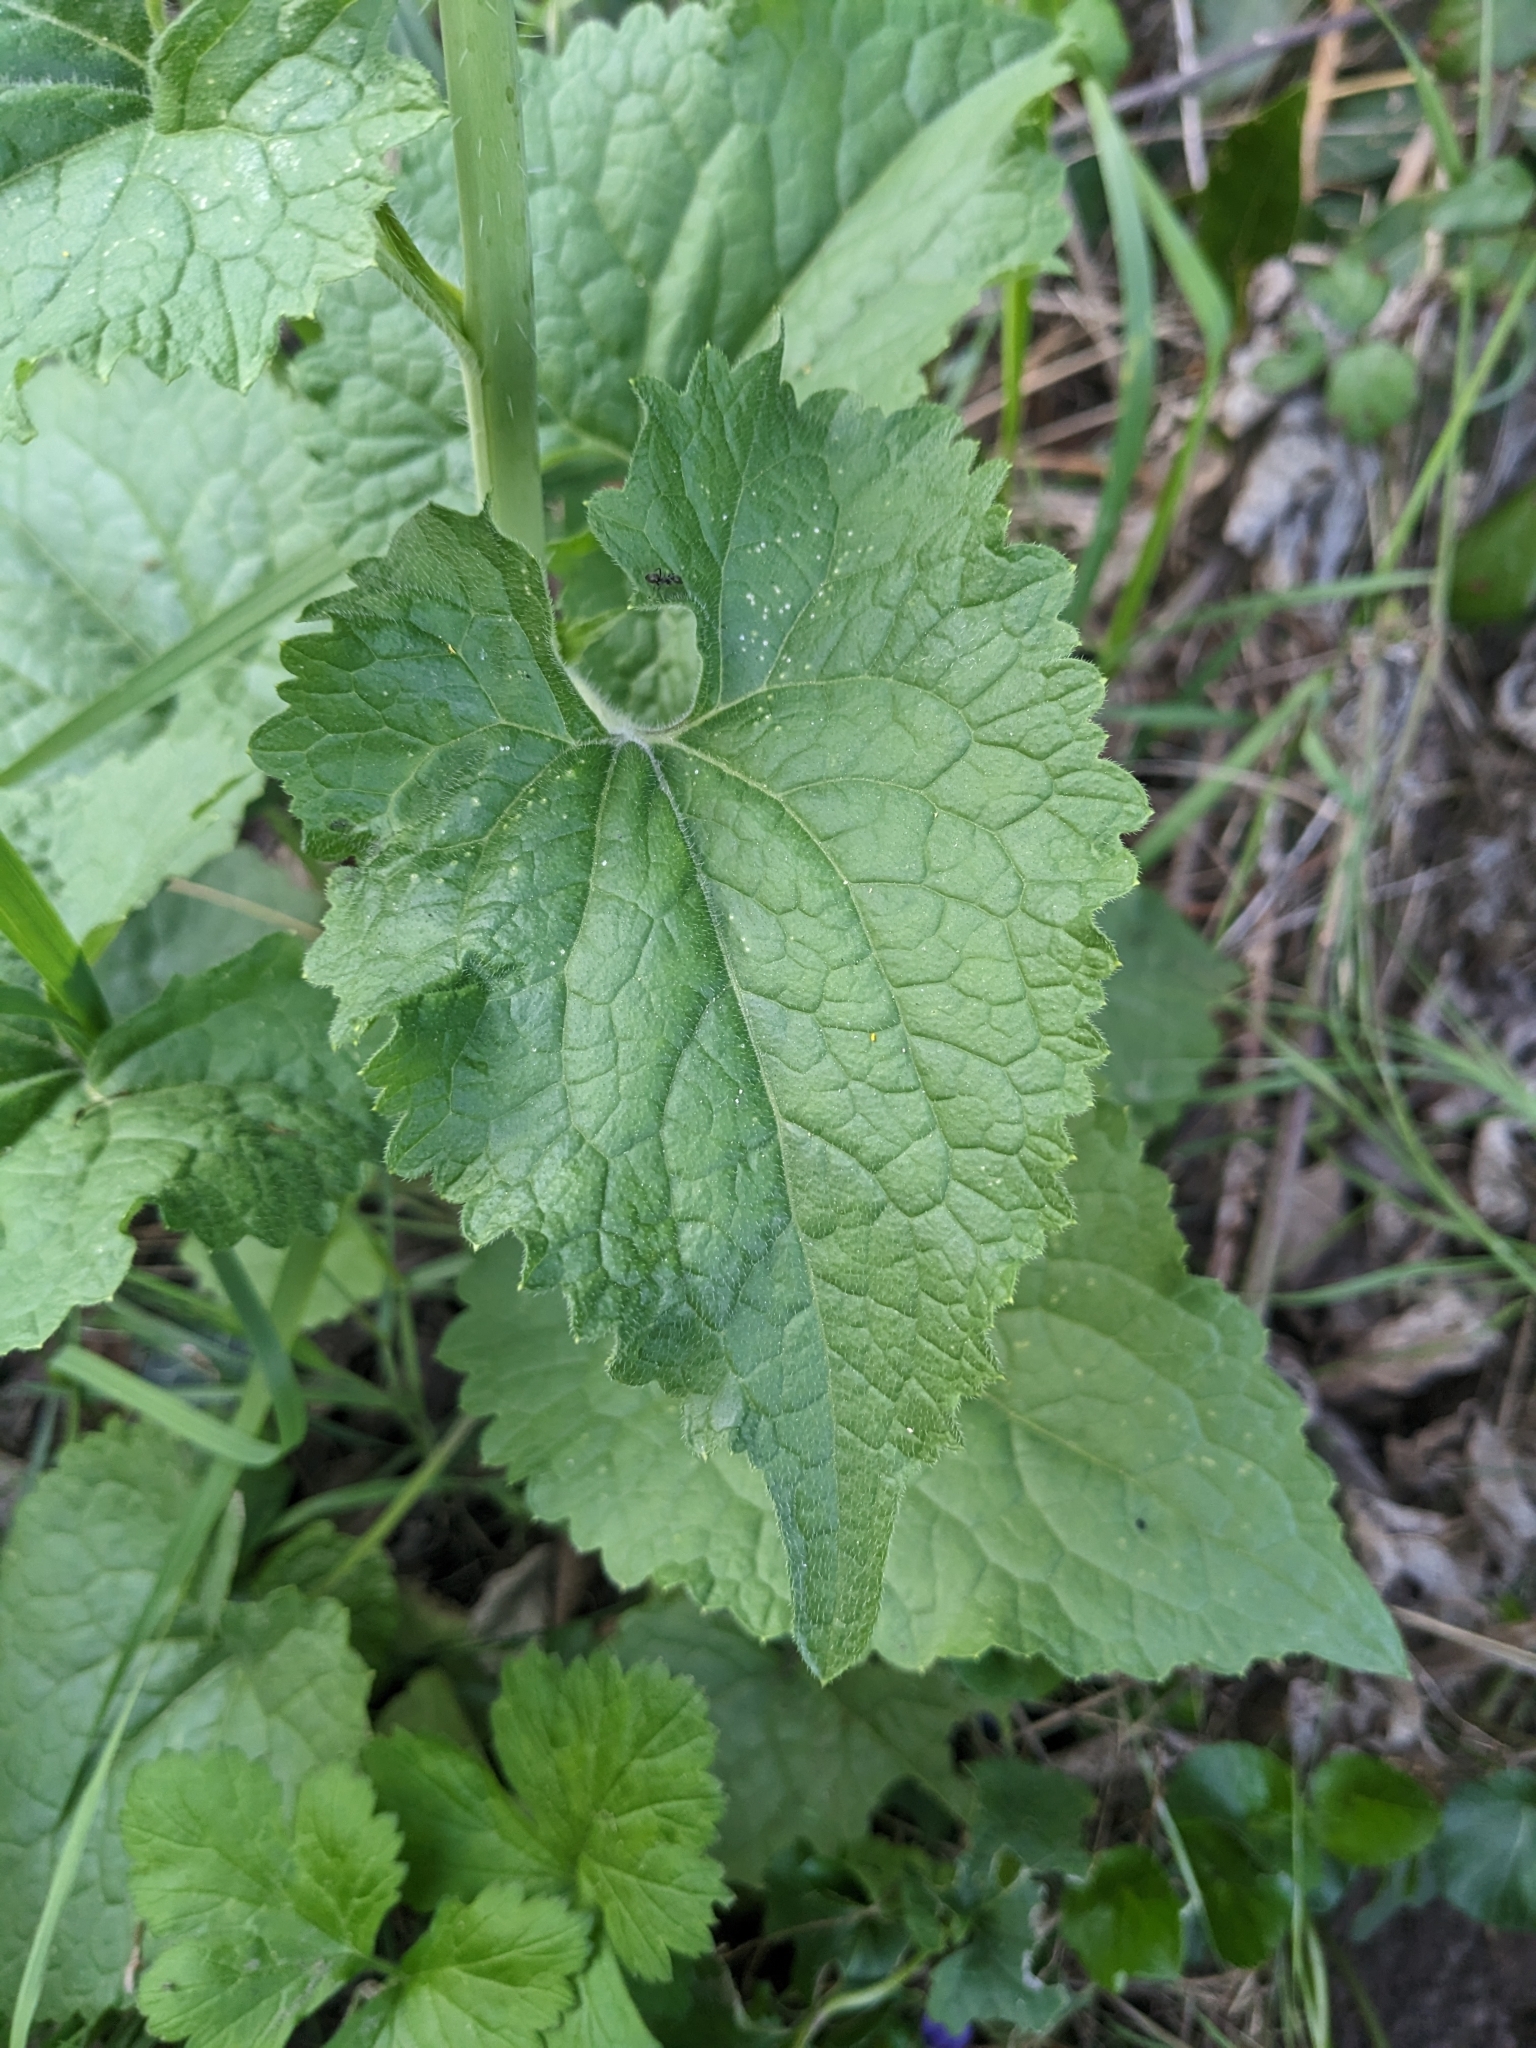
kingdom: Plantae
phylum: Tracheophyta
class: Magnoliopsida
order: Brassicales
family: Brassicaceae
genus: Lunaria
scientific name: Lunaria annua
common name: Honesty
